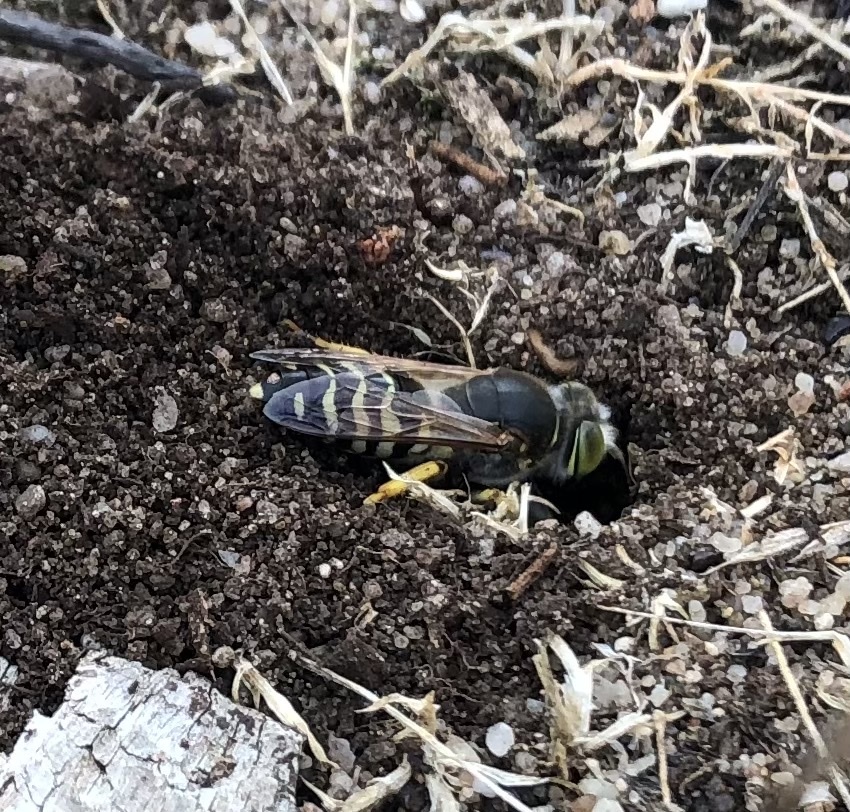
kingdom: Animalia
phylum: Arthropoda
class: Insecta
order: Hymenoptera
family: Crabronidae
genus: Bembix
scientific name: Bembix rostrata
